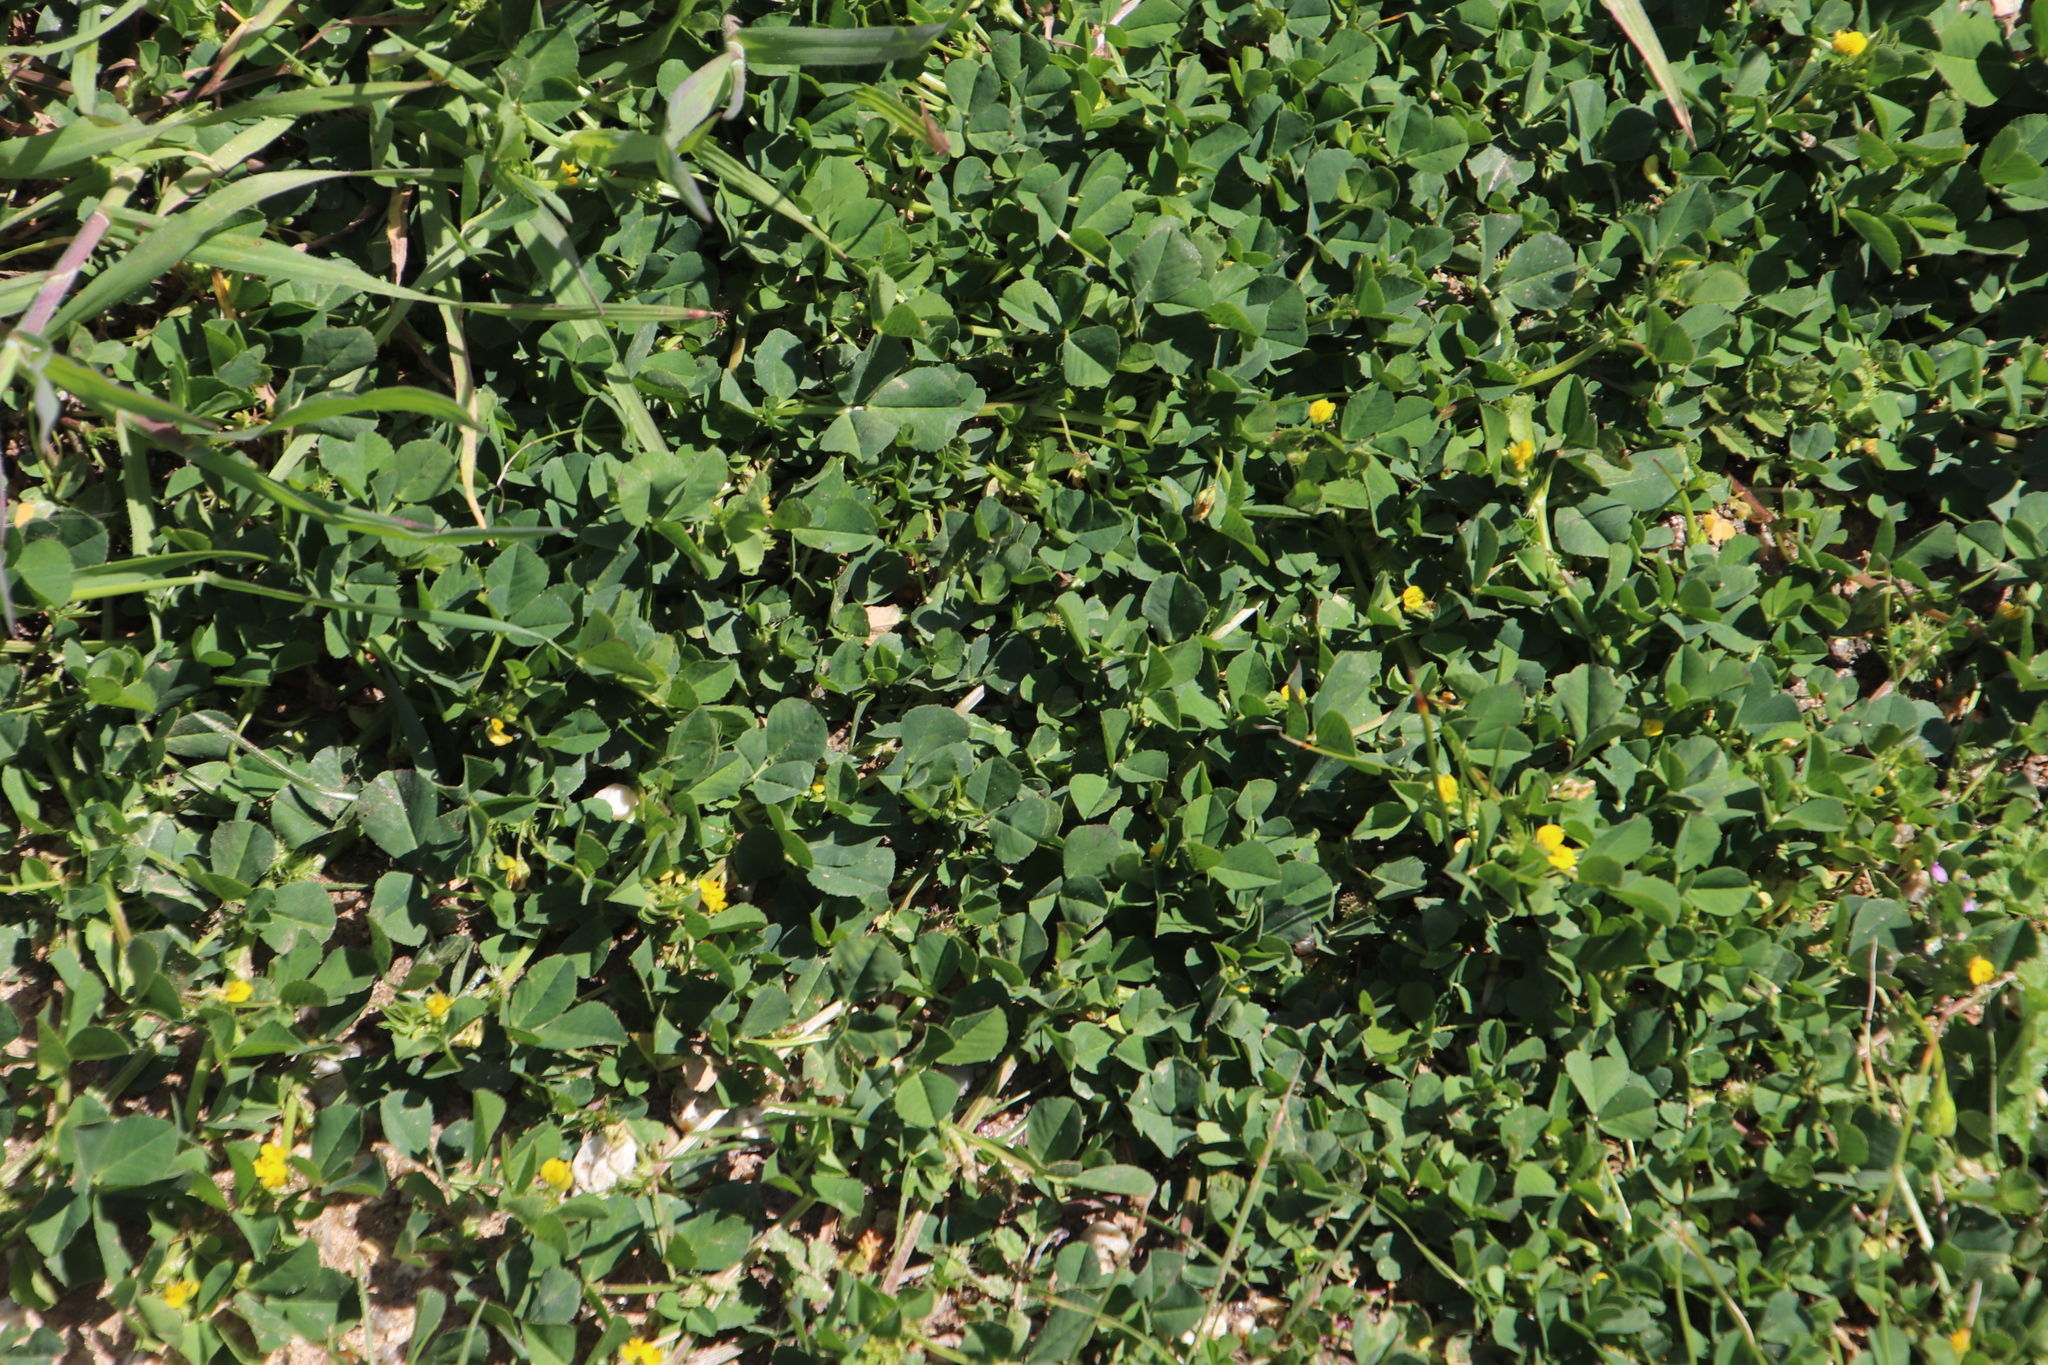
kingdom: Plantae
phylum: Tracheophyta
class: Magnoliopsida
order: Fabales
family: Fabaceae
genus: Medicago
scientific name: Medicago polymorpha
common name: Burclover
